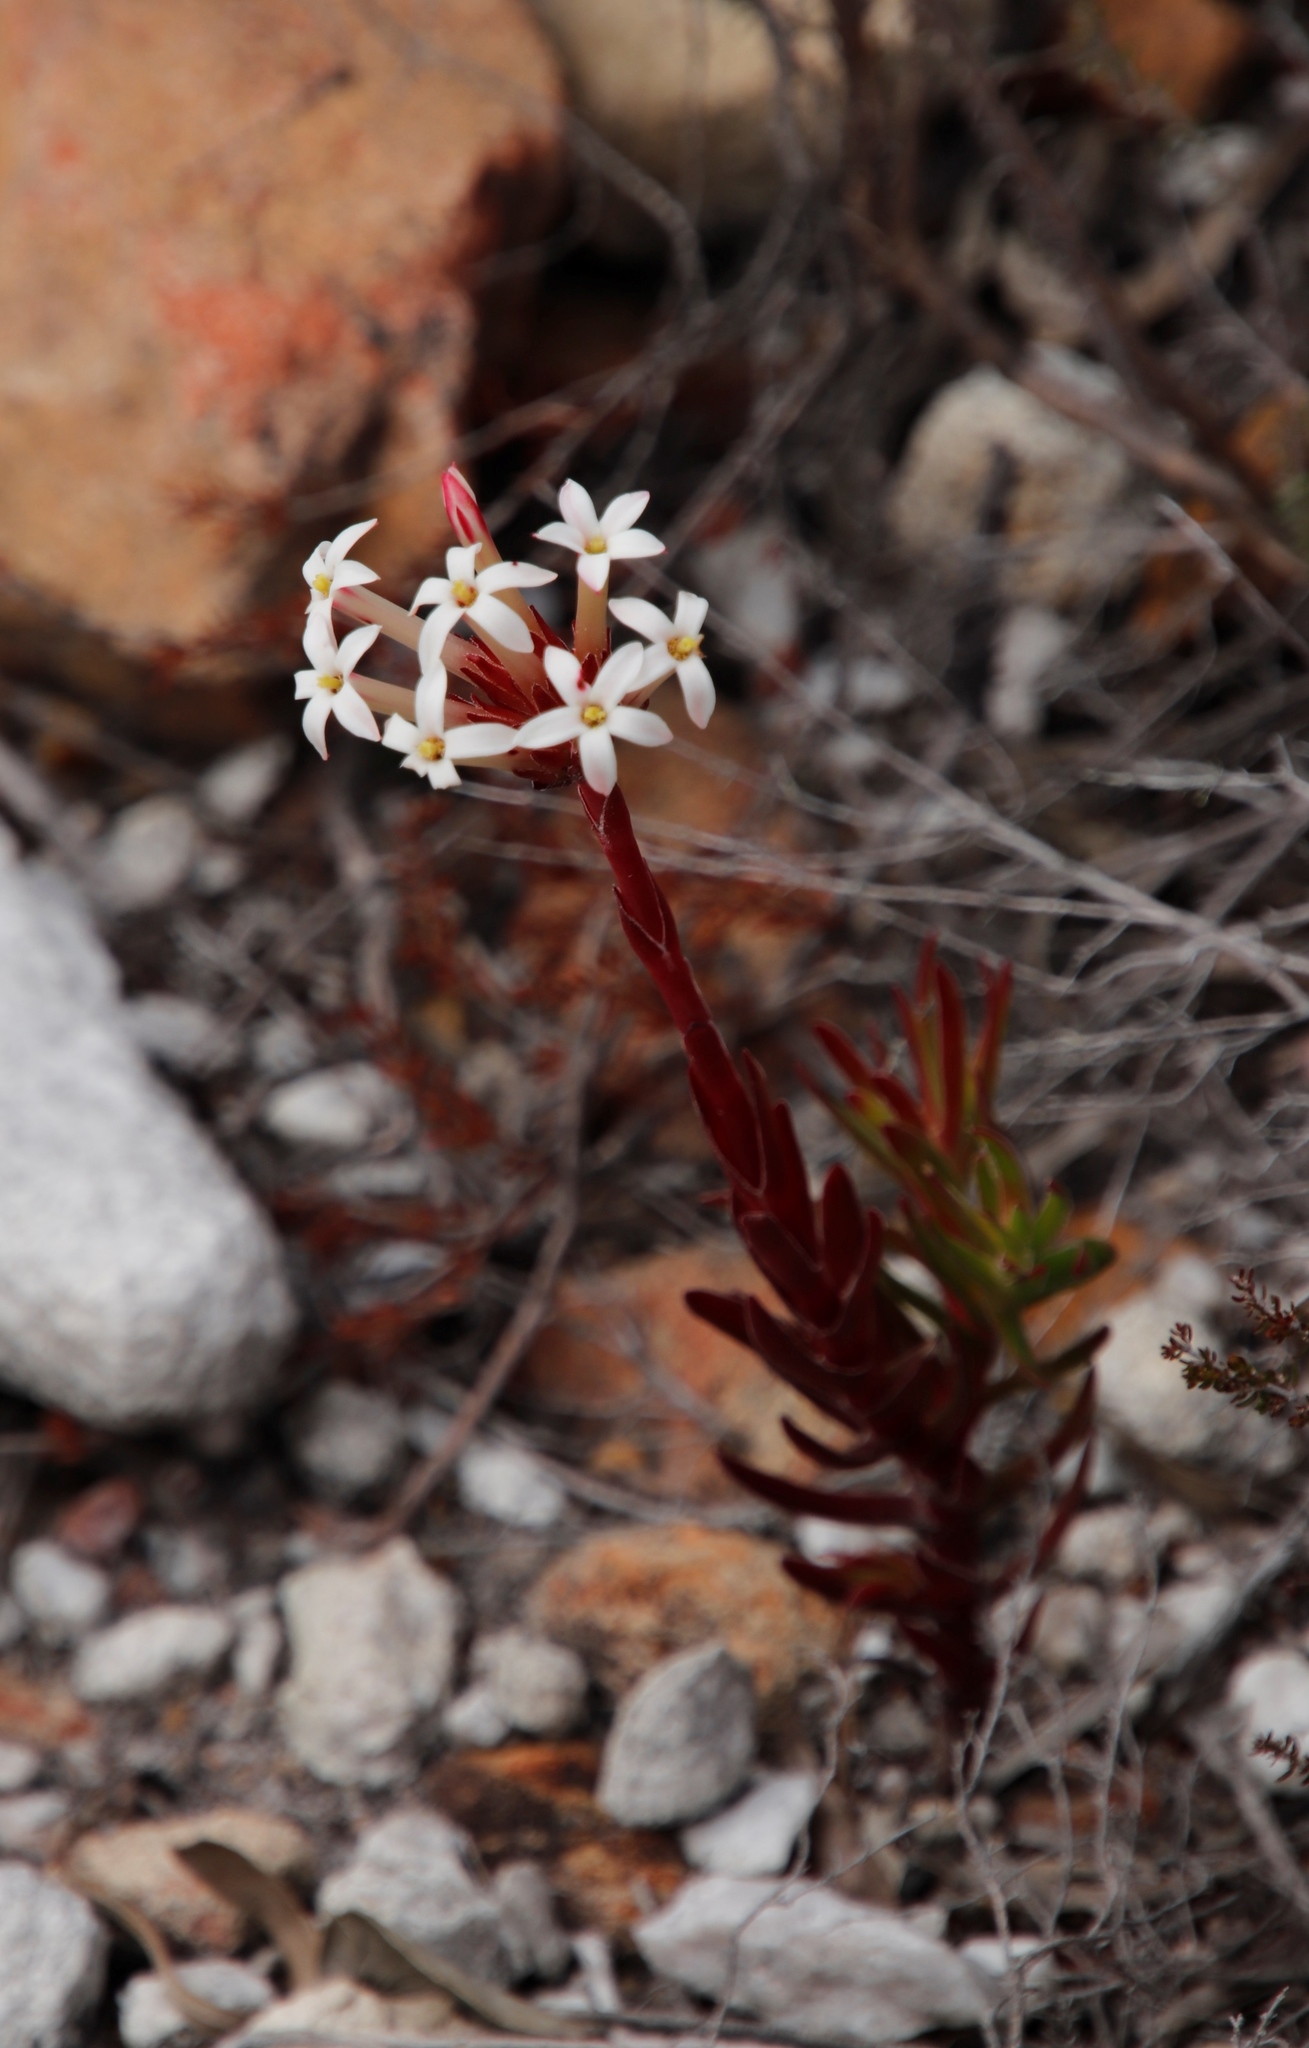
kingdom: Plantae
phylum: Tracheophyta
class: Magnoliopsida
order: Saxifragales
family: Crassulaceae
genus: Crassula
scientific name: Crassula fascicularis
